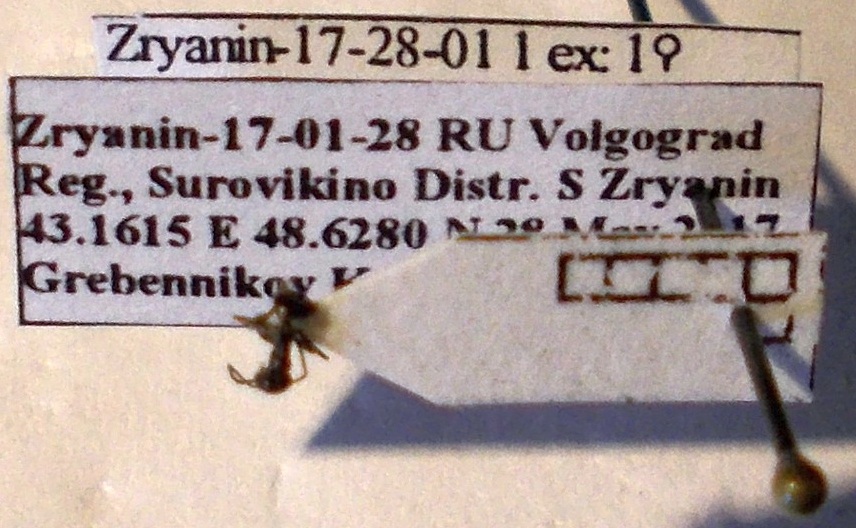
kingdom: Animalia
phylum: Arthropoda
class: Insecta
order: Hymenoptera
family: Formicidae
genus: Tapinoma
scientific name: Tapinoma erraticum
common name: Erratic ant
